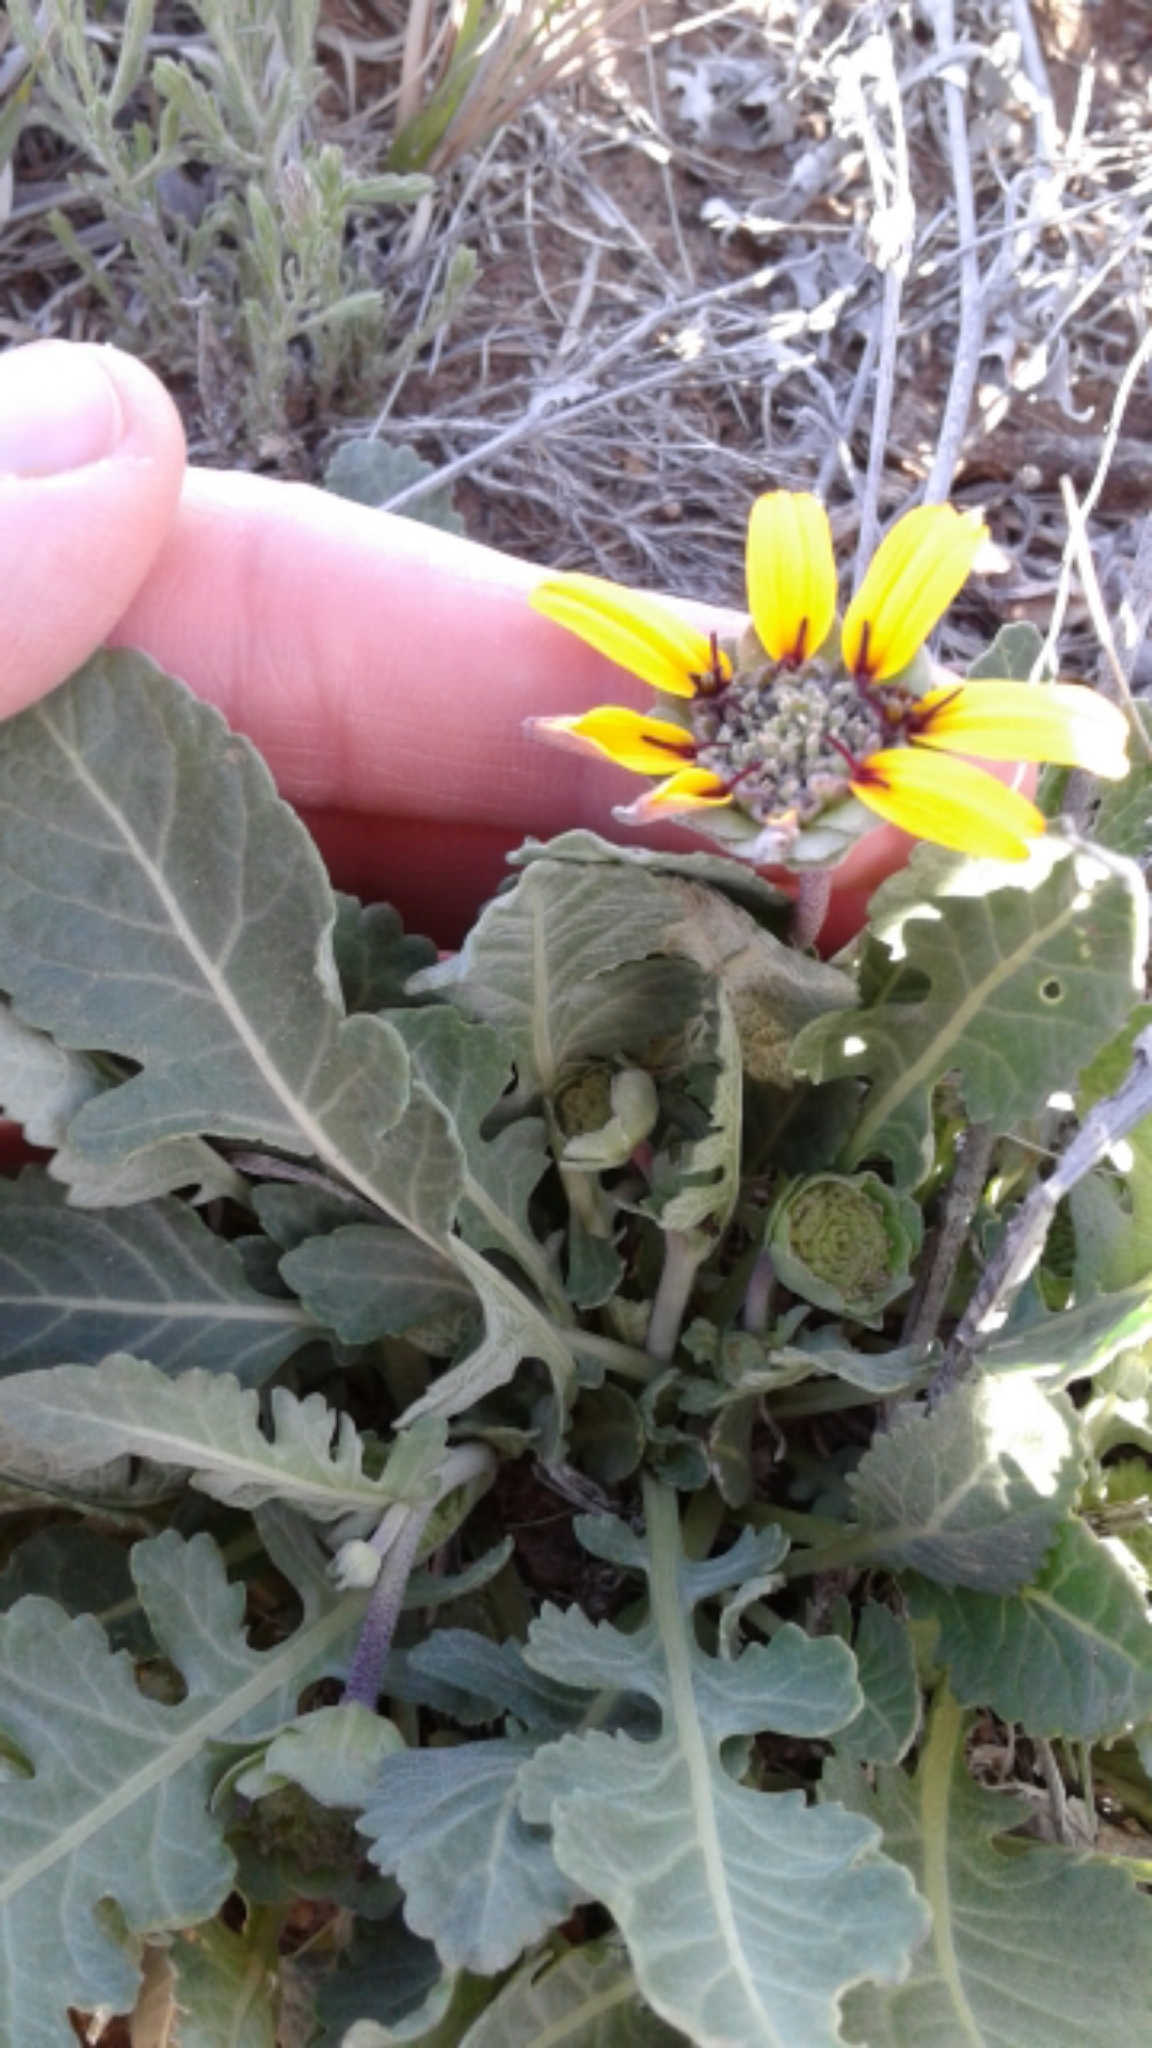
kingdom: Plantae
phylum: Tracheophyta
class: Magnoliopsida
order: Asterales
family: Asteraceae
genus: Berlandiera
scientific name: Berlandiera lyrata
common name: Chocolate-flower
